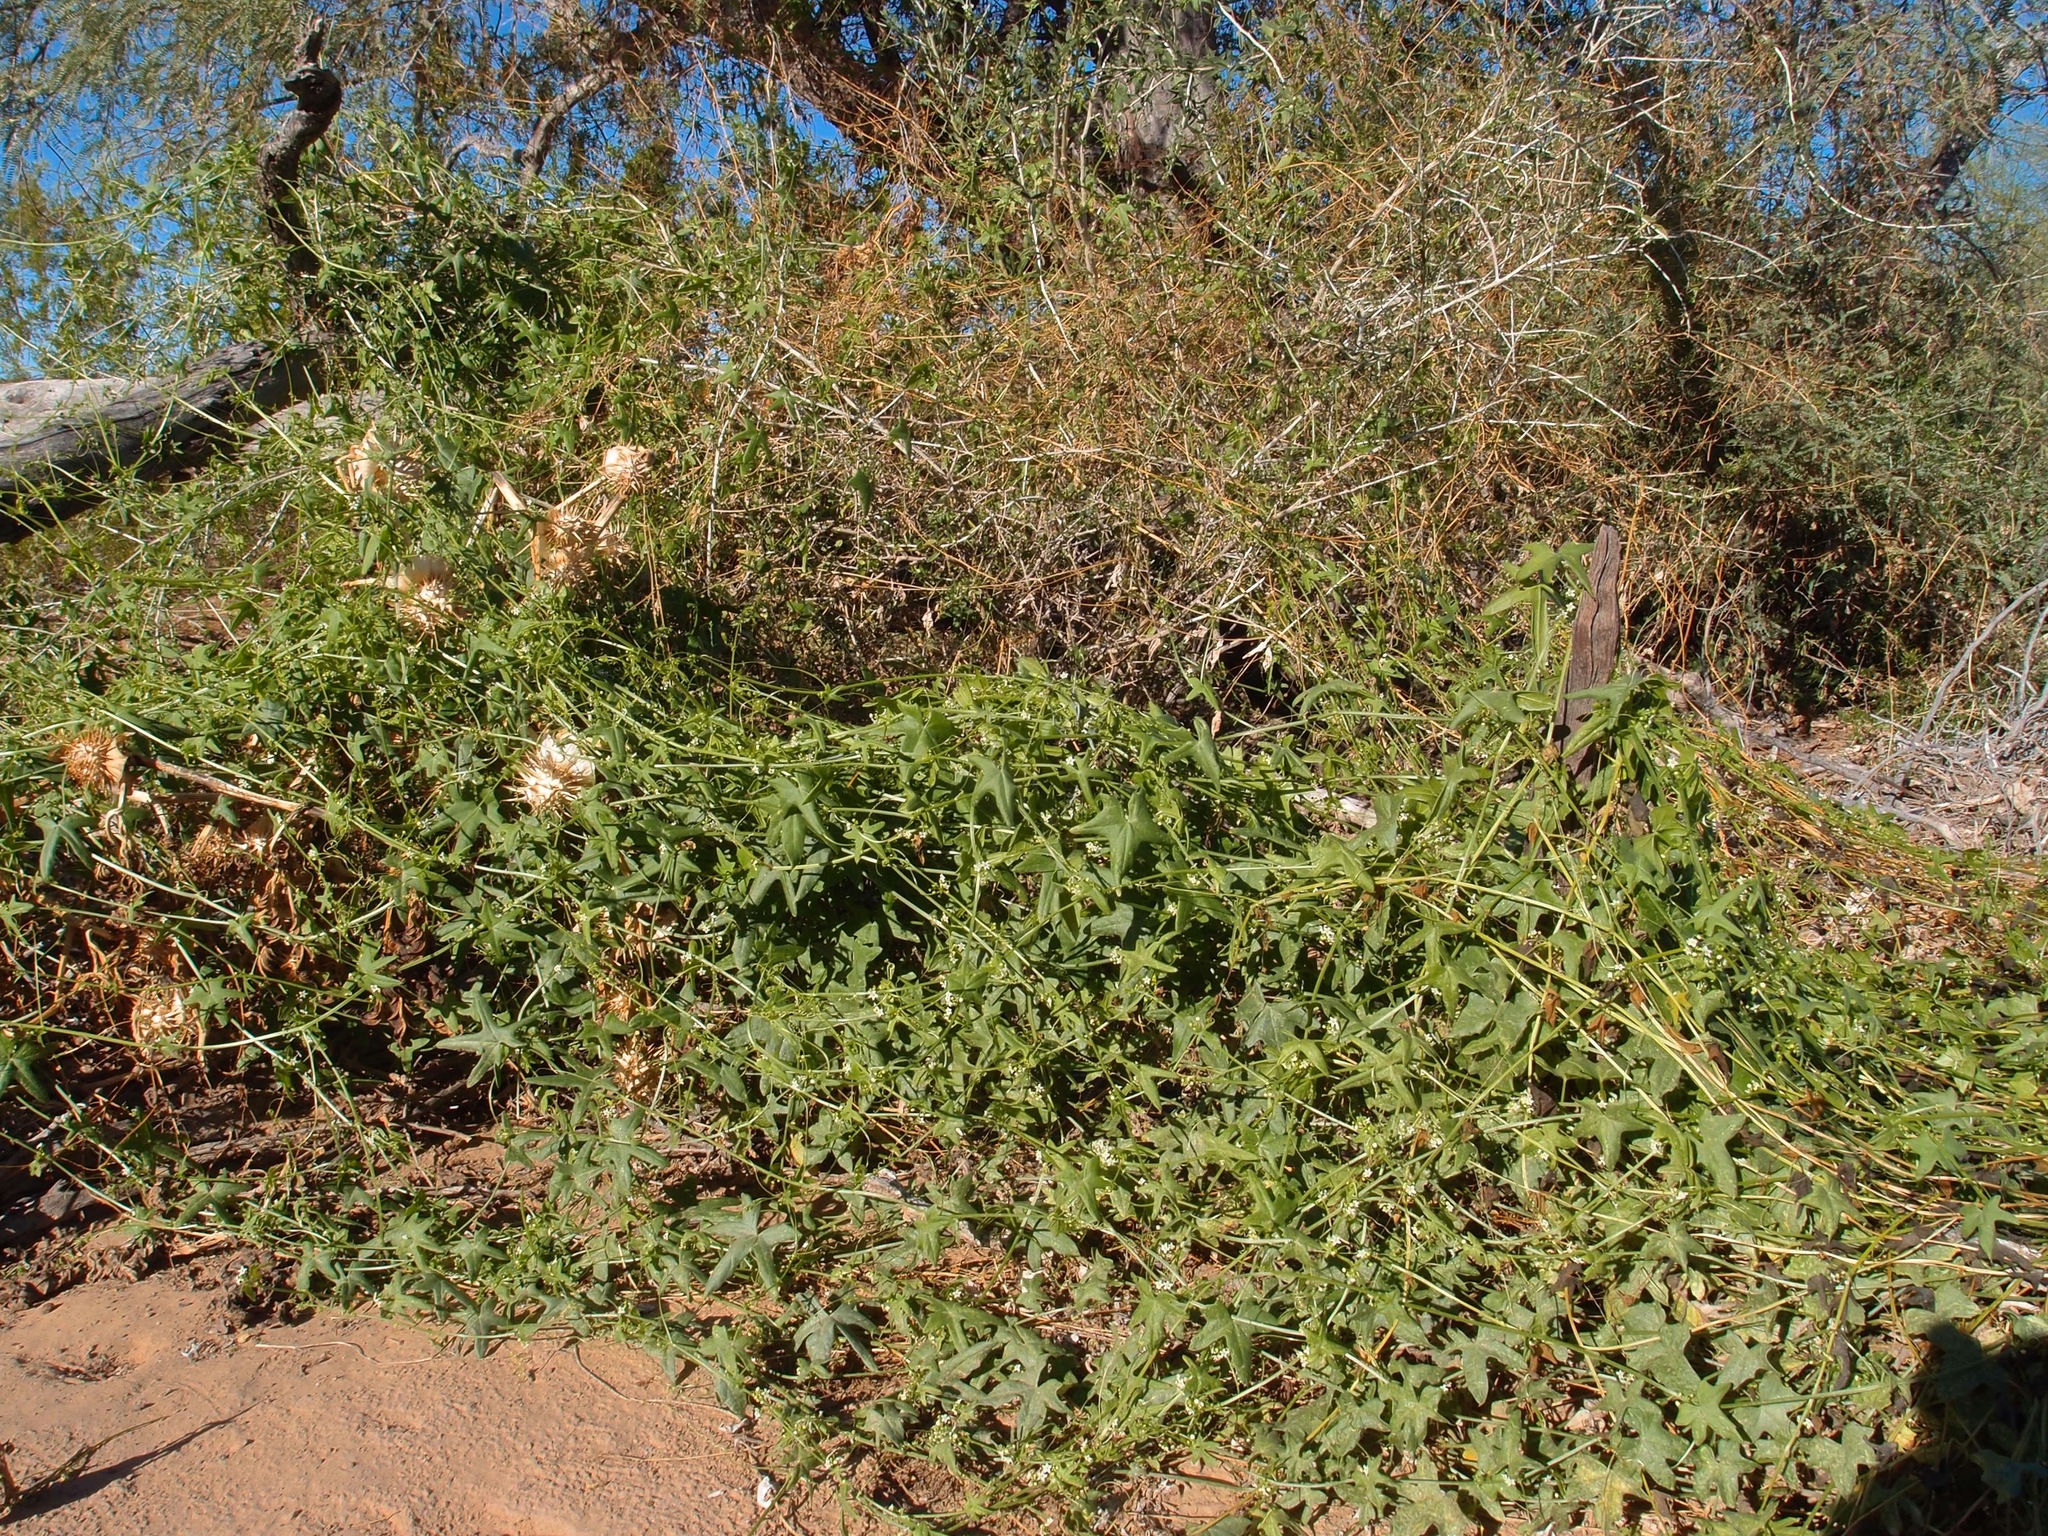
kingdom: Plantae
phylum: Tracheophyta
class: Magnoliopsida
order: Cucurbitales
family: Cucurbitaceae
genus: Echinopepon
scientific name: Echinopepon bigelovii
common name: Desert starvine
